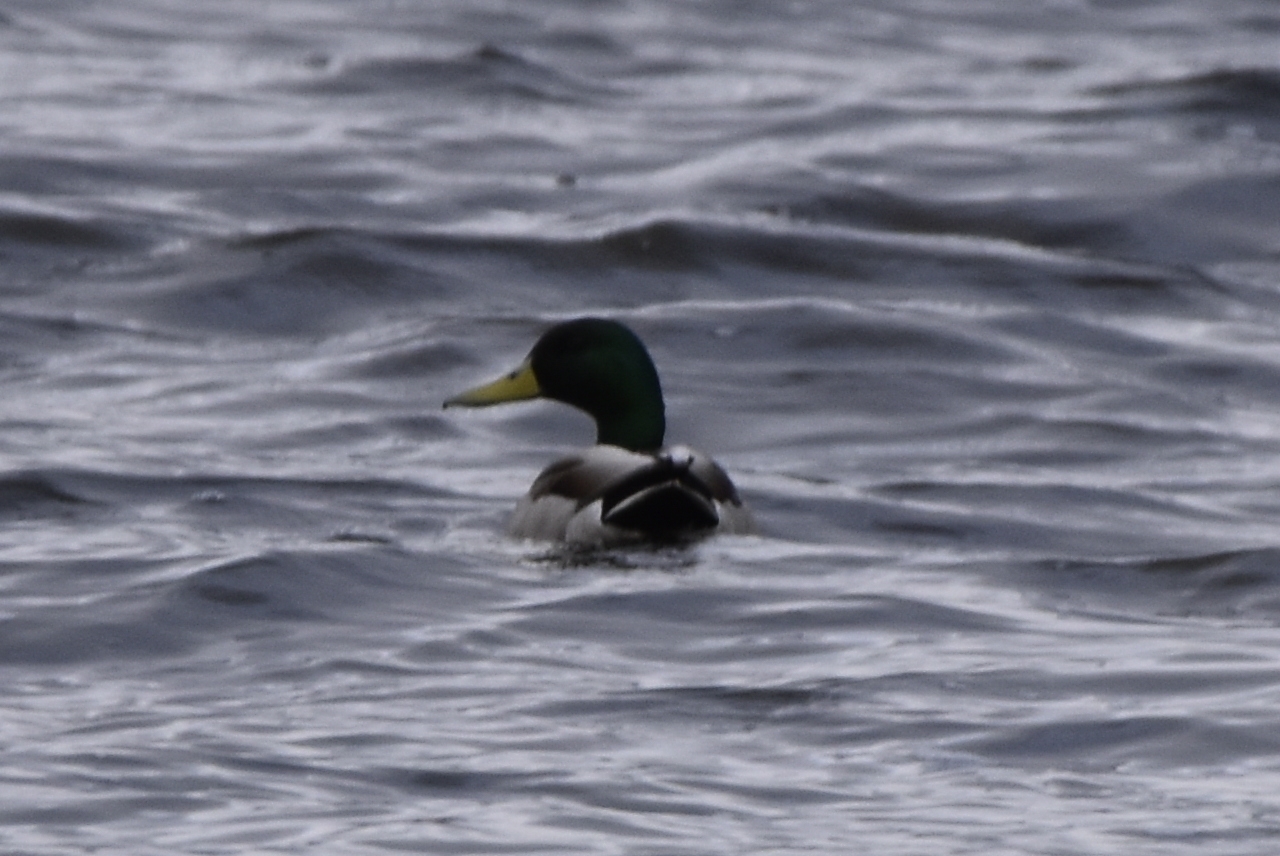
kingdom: Animalia
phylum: Chordata
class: Aves
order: Anseriformes
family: Anatidae
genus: Anas
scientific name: Anas platyrhynchos
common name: Mallard
